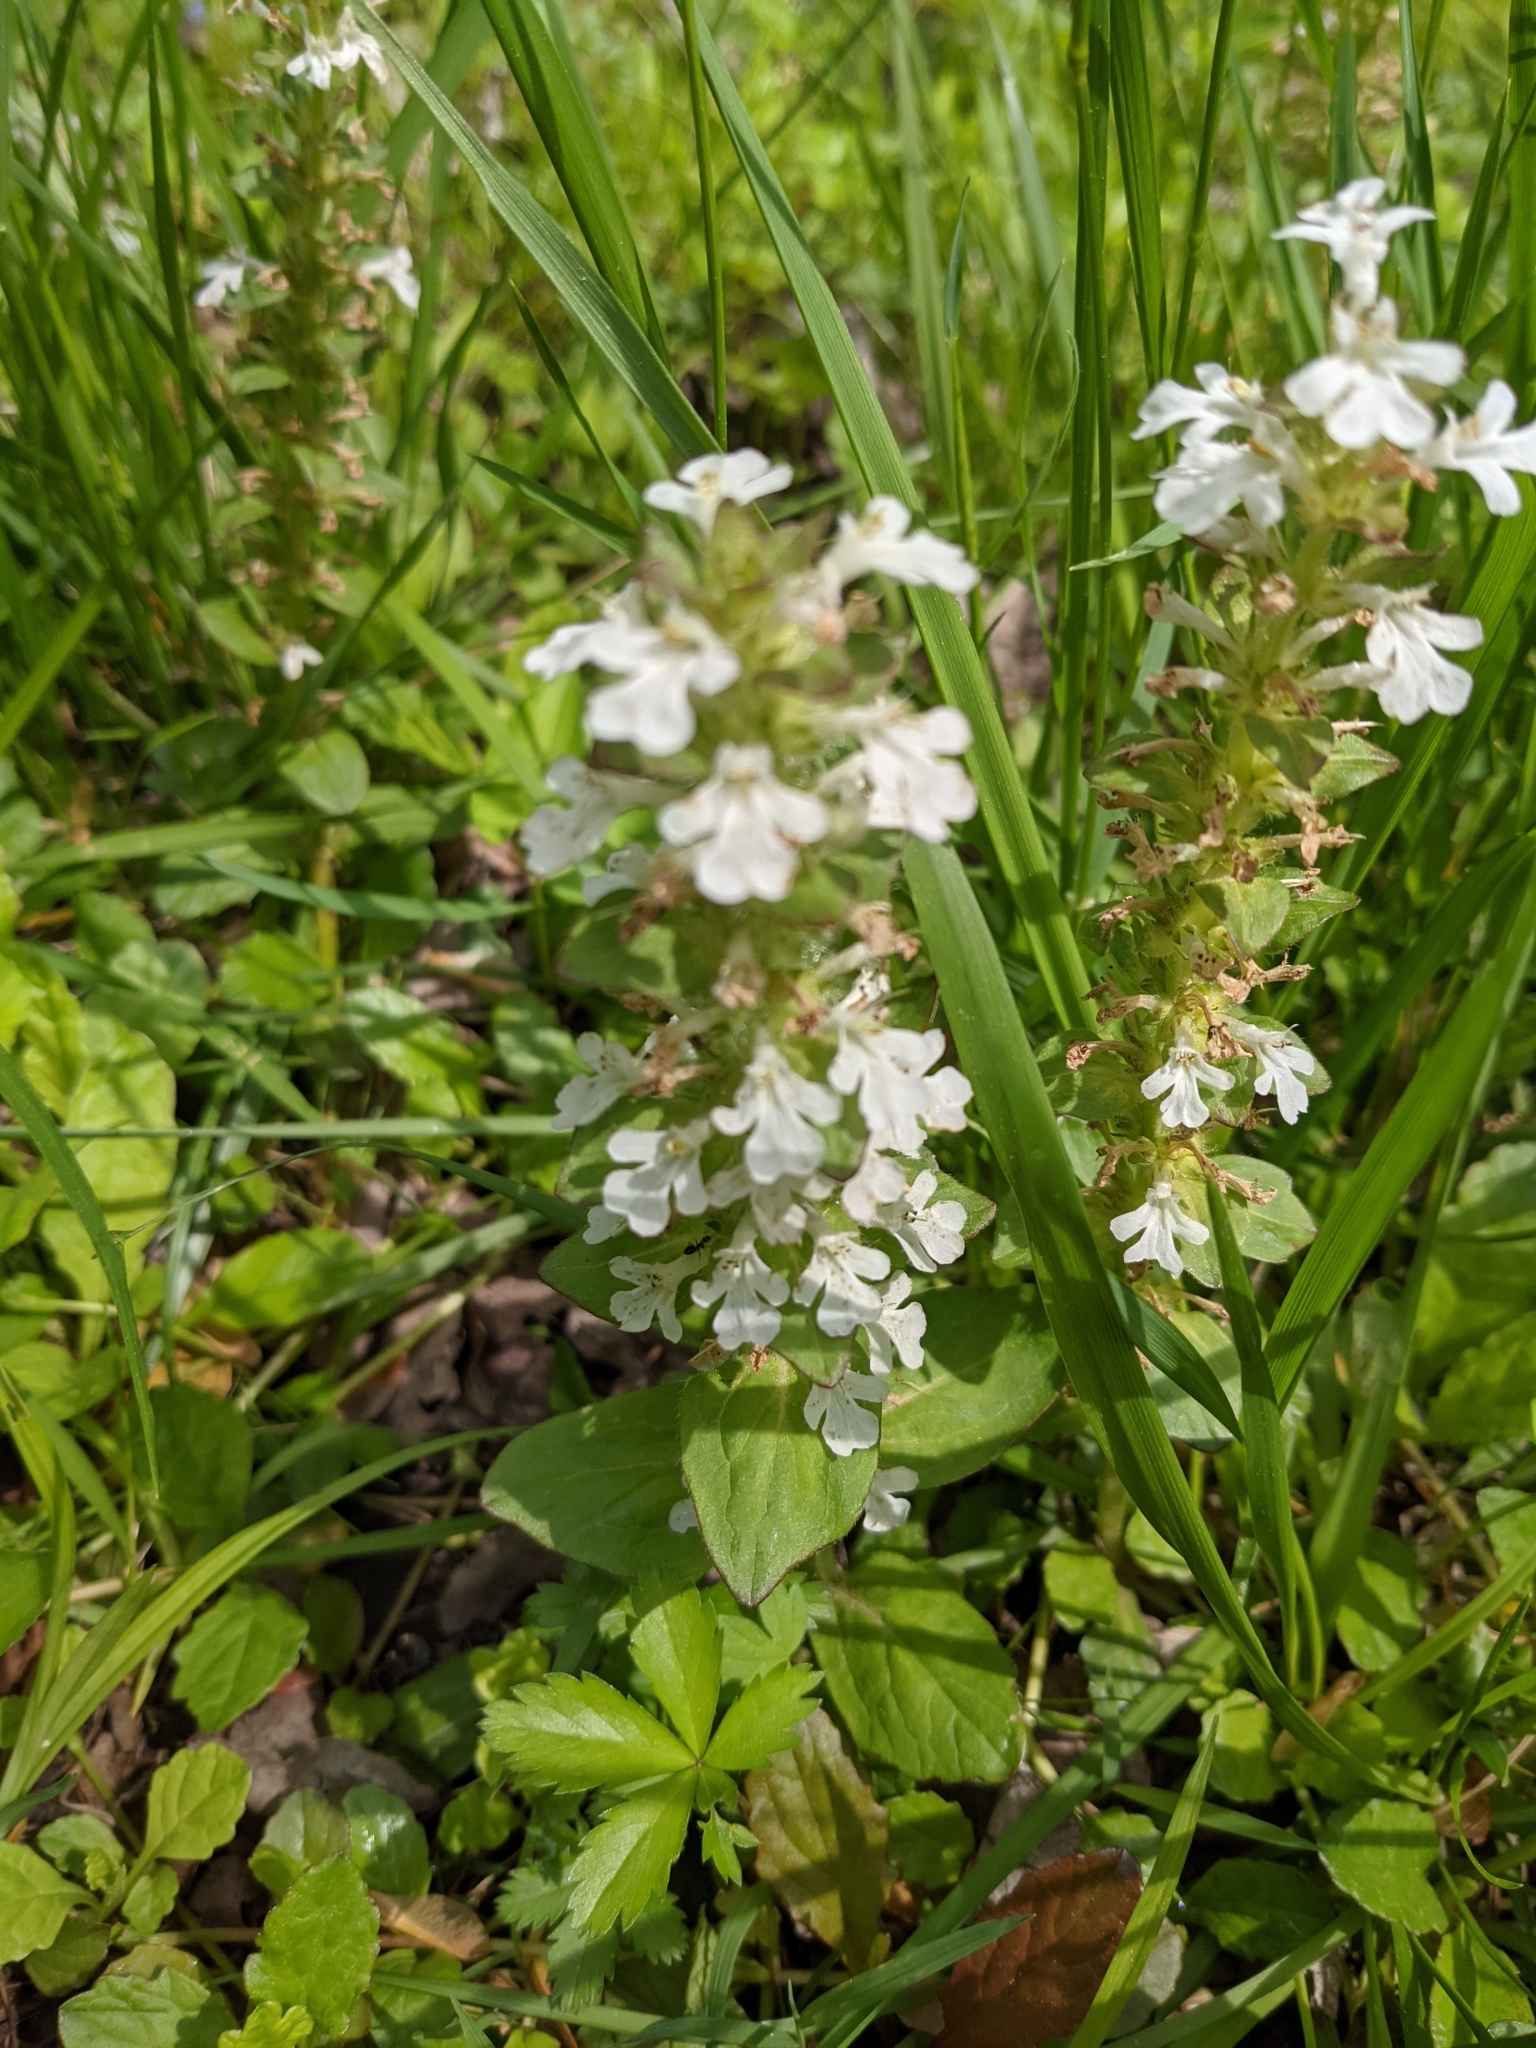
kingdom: Plantae
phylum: Tracheophyta
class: Magnoliopsida
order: Lamiales
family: Lamiaceae
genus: Ajuga
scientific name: Ajuga reptans
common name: Bugle
